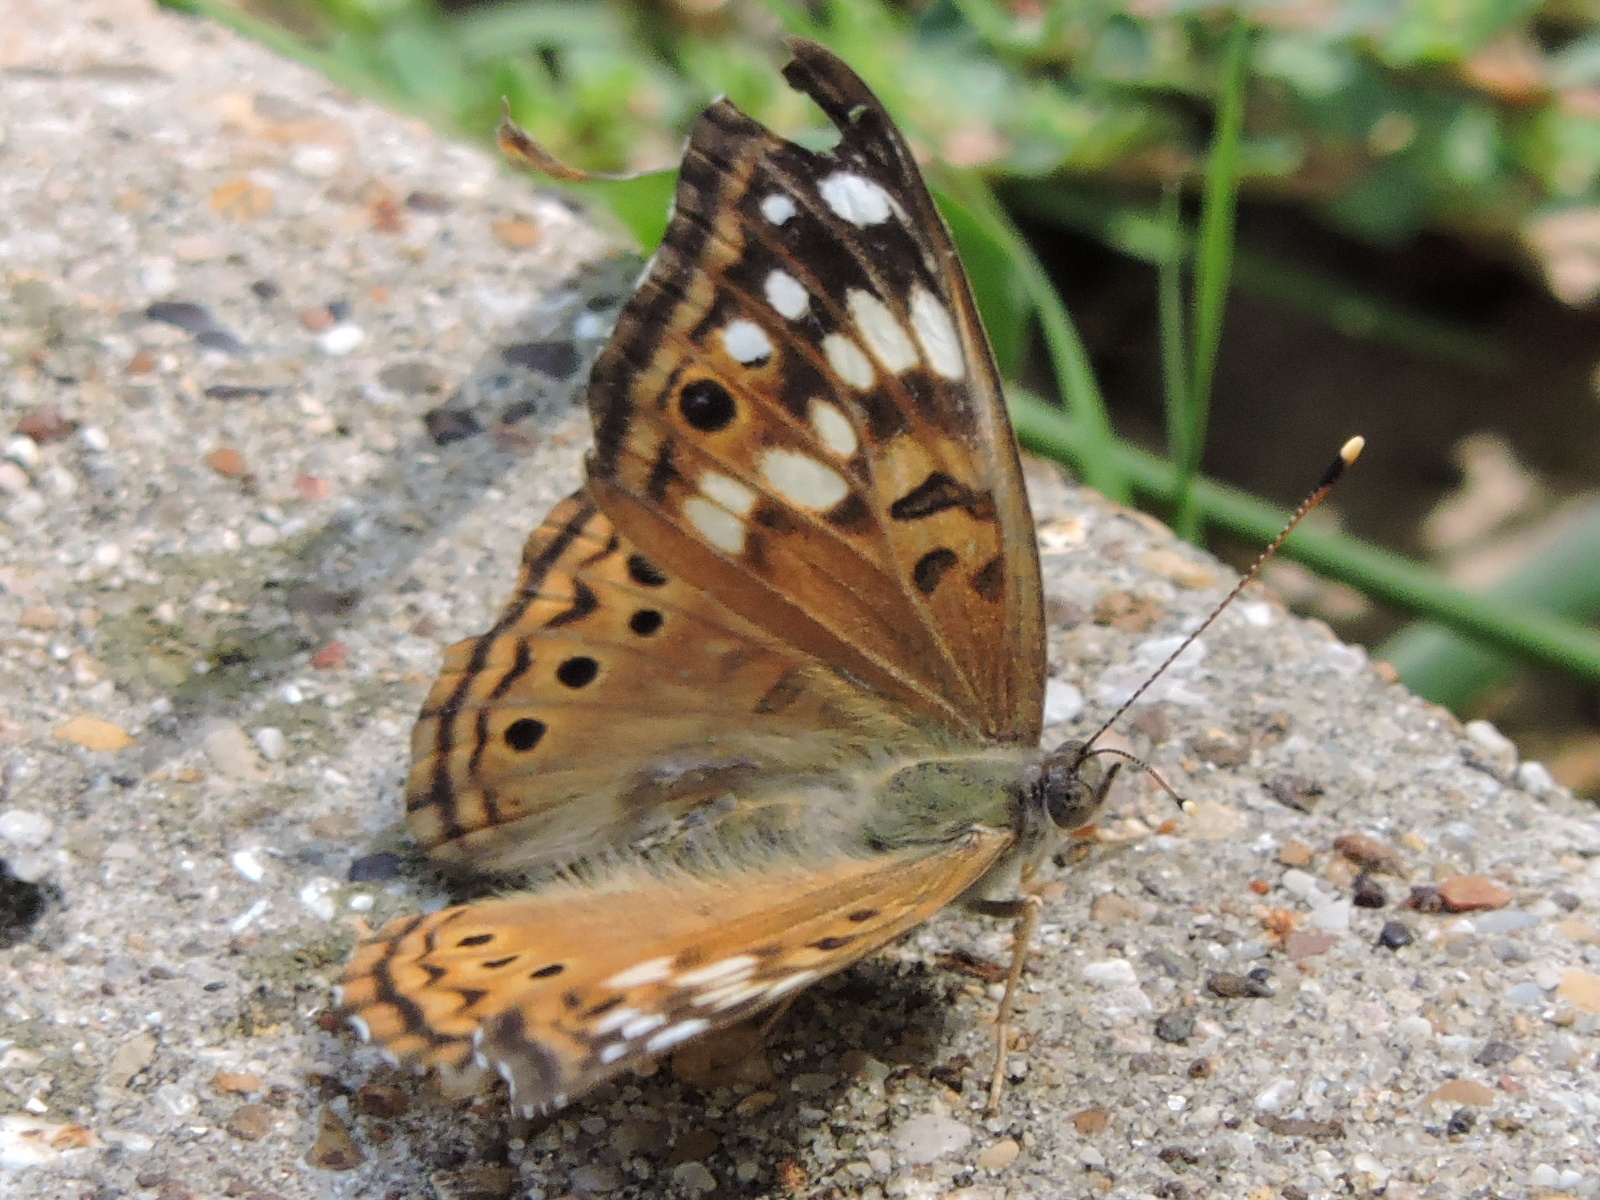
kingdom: Animalia
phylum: Arthropoda
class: Insecta
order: Lepidoptera
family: Nymphalidae
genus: Asterocampa
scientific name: Asterocampa celtis
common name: Hackberry emperor
